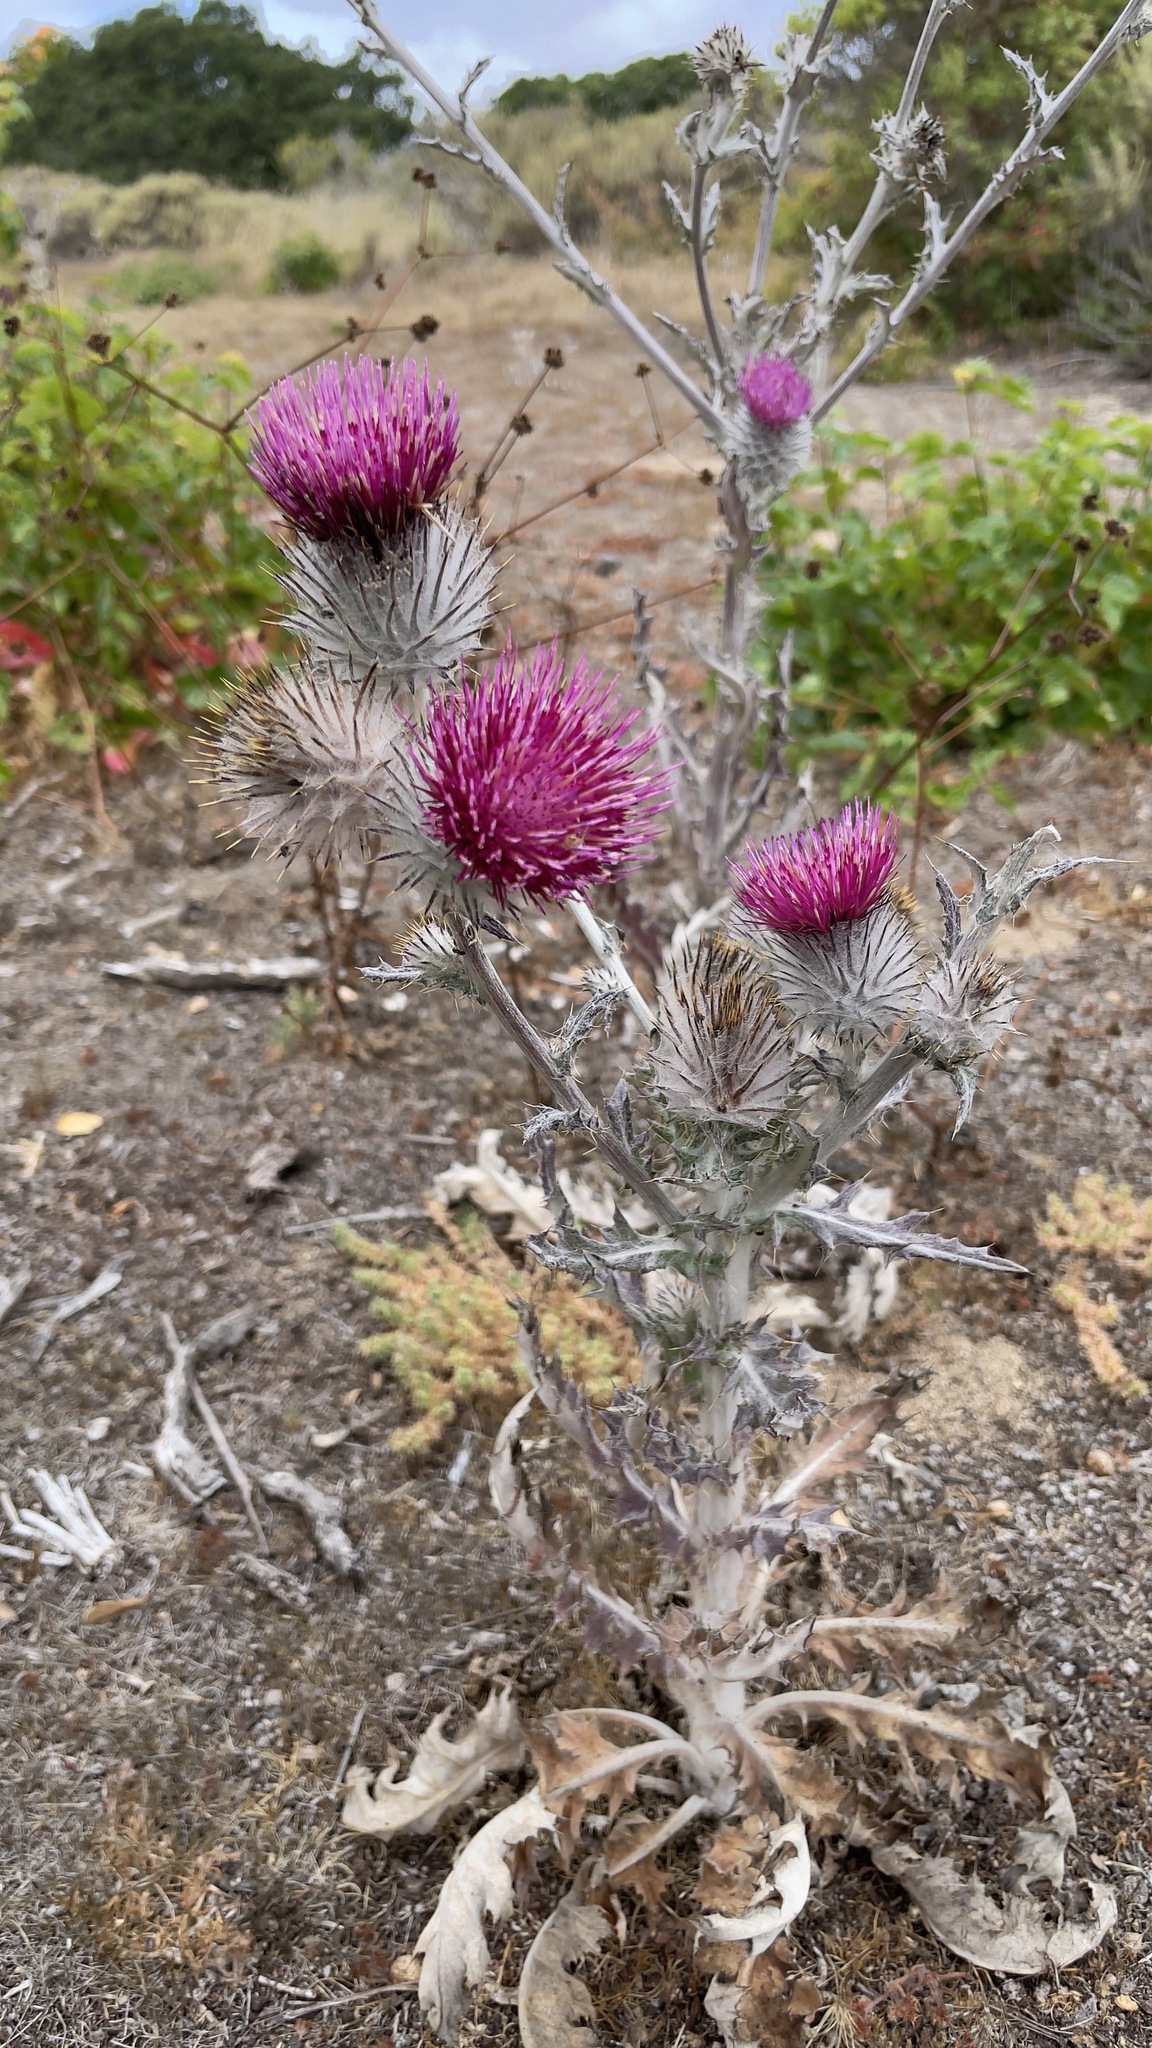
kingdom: Plantae
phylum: Tracheophyta
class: Magnoliopsida
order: Asterales
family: Asteraceae
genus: Cirsium
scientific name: Cirsium occidentale
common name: Western thistle
